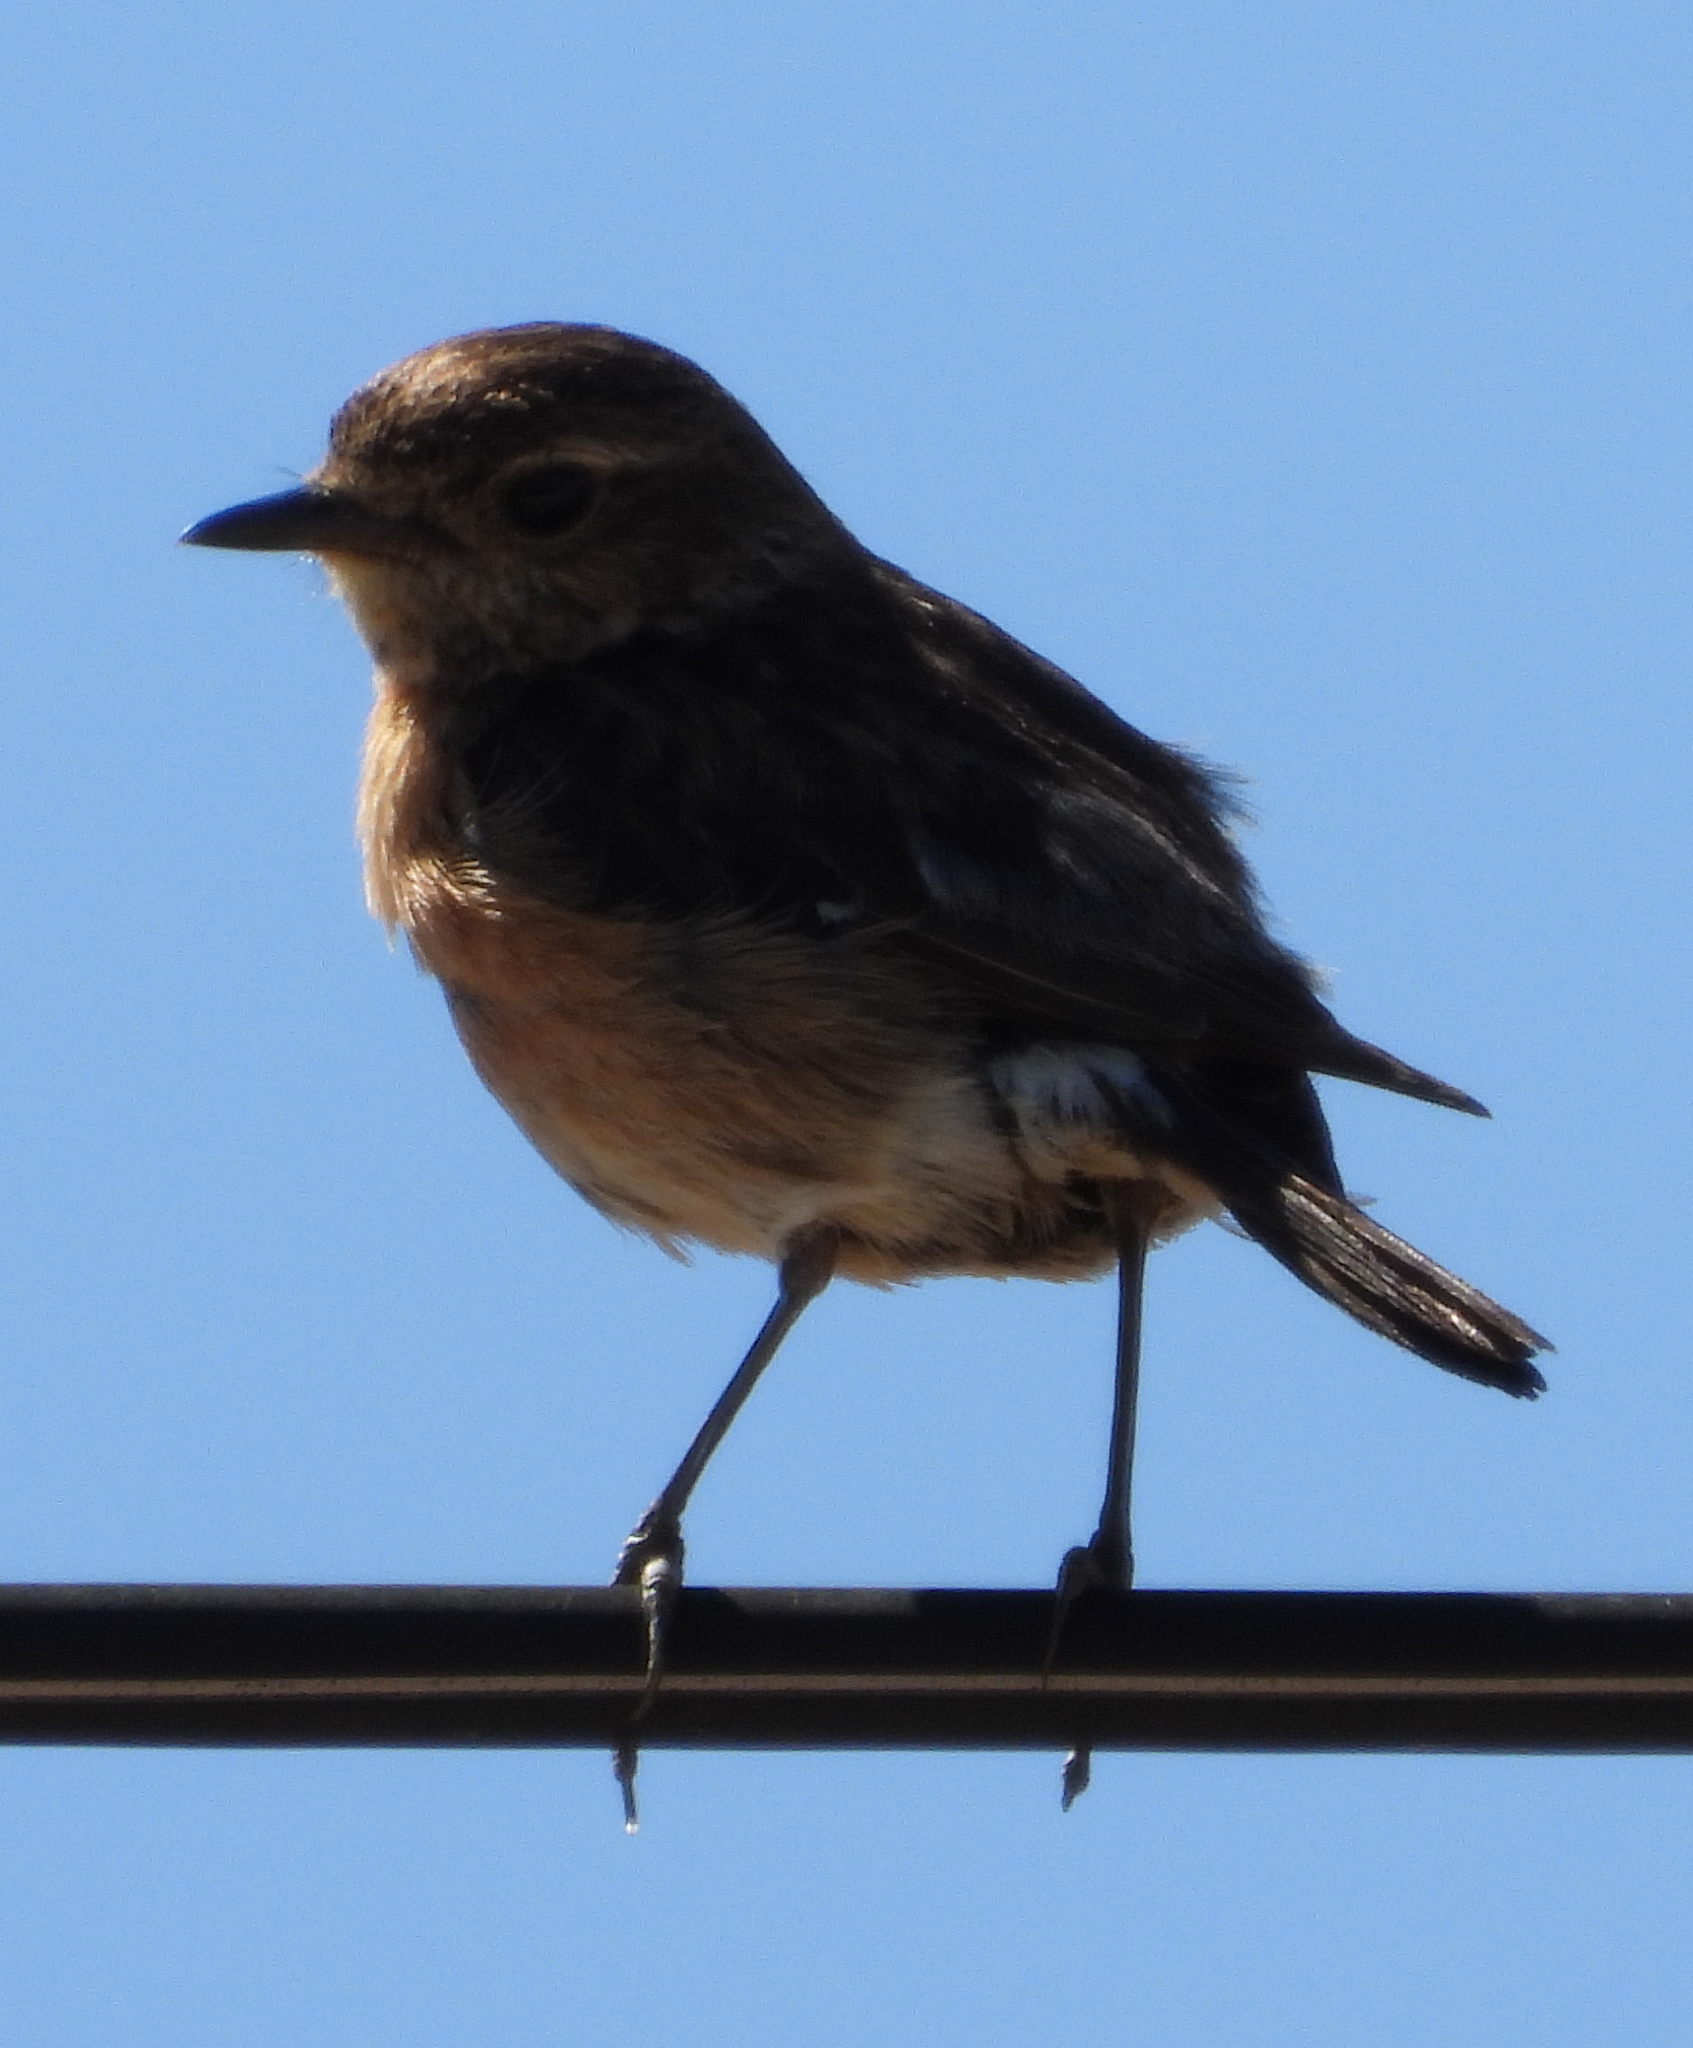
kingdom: Animalia
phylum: Chordata
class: Aves
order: Passeriformes
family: Muscicapidae
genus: Saxicola
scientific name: Saxicola torquatus
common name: African stonechat
